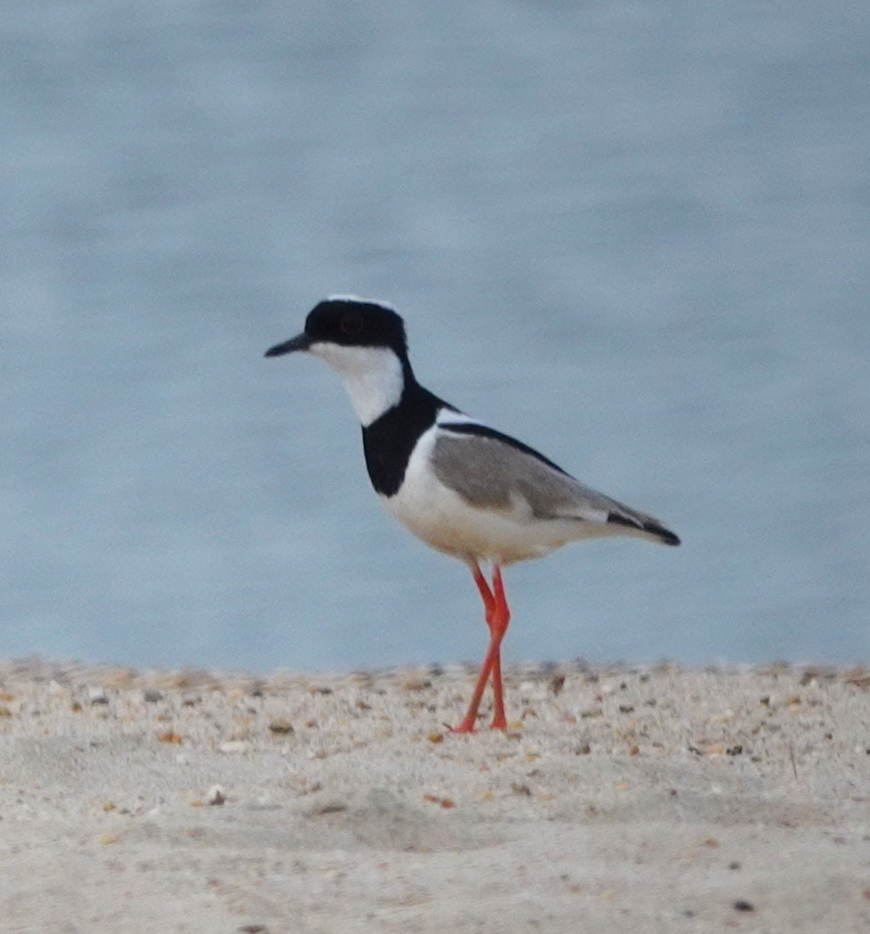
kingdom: Animalia
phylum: Chordata
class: Aves
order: Charadriiformes
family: Charadriidae
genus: Hoploxypterus
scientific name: Hoploxypterus cayanus
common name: Pied plover
